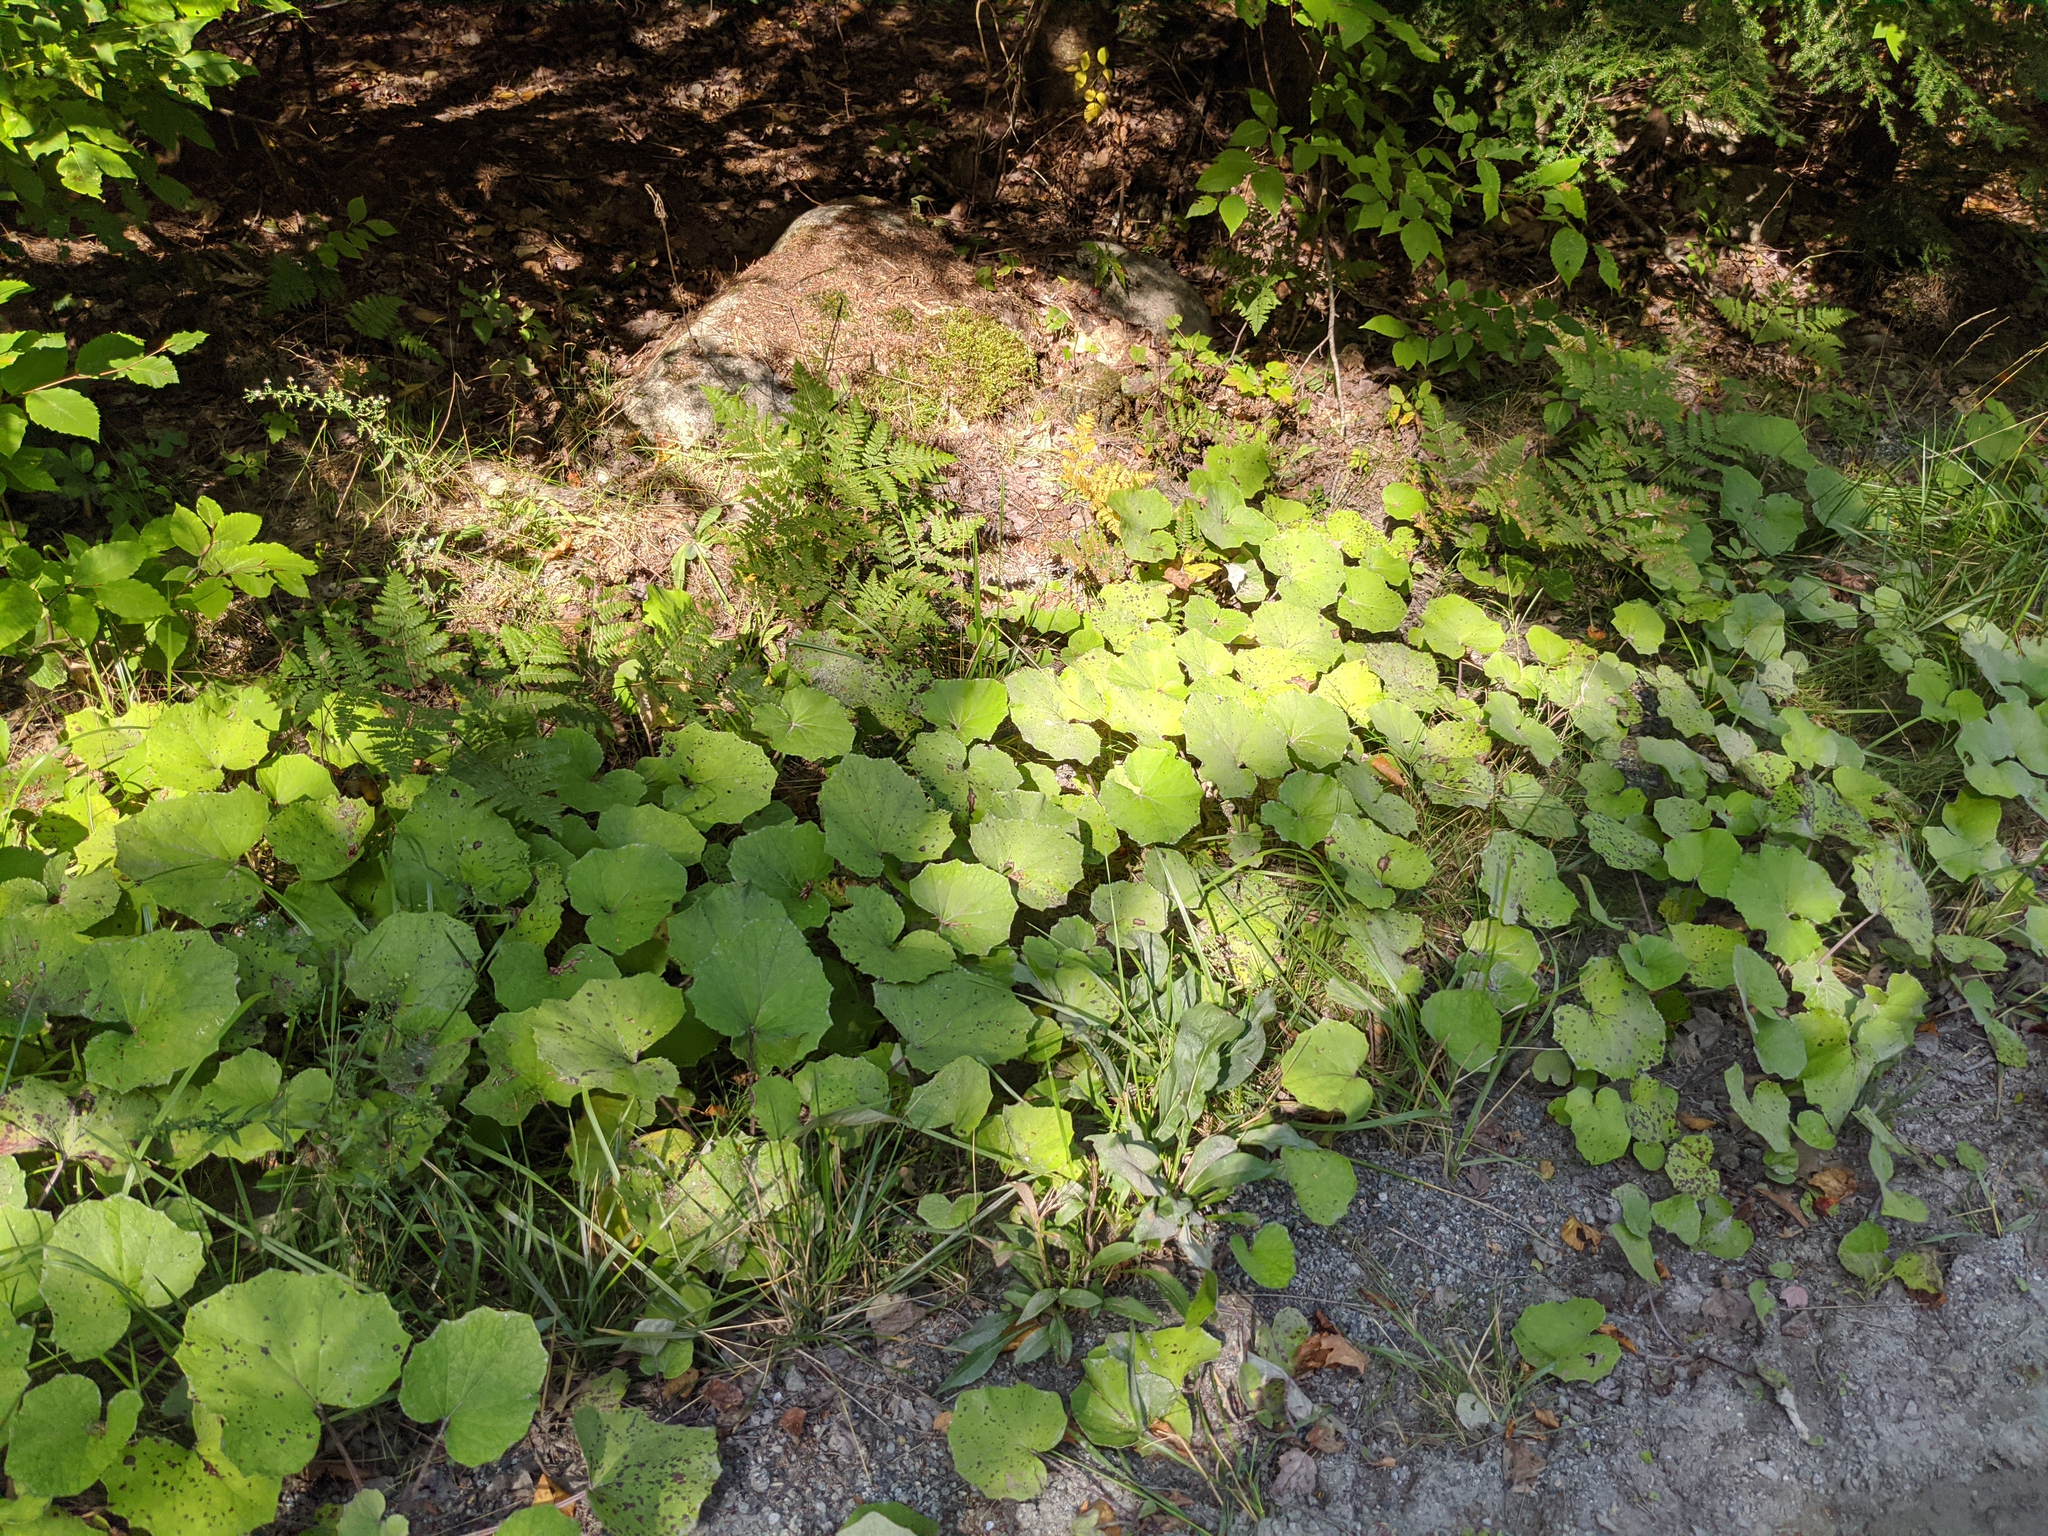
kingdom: Plantae
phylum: Tracheophyta
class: Magnoliopsida
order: Asterales
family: Asteraceae
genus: Tussilago
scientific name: Tussilago farfara
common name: Coltsfoot
